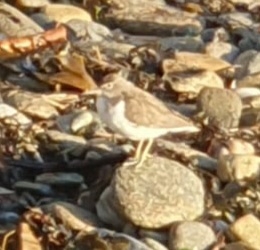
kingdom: Animalia
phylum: Chordata
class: Aves
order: Charadriiformes
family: Scolopacidae
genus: Actitis
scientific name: Actitis hypoleucos
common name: Common sandpiper
